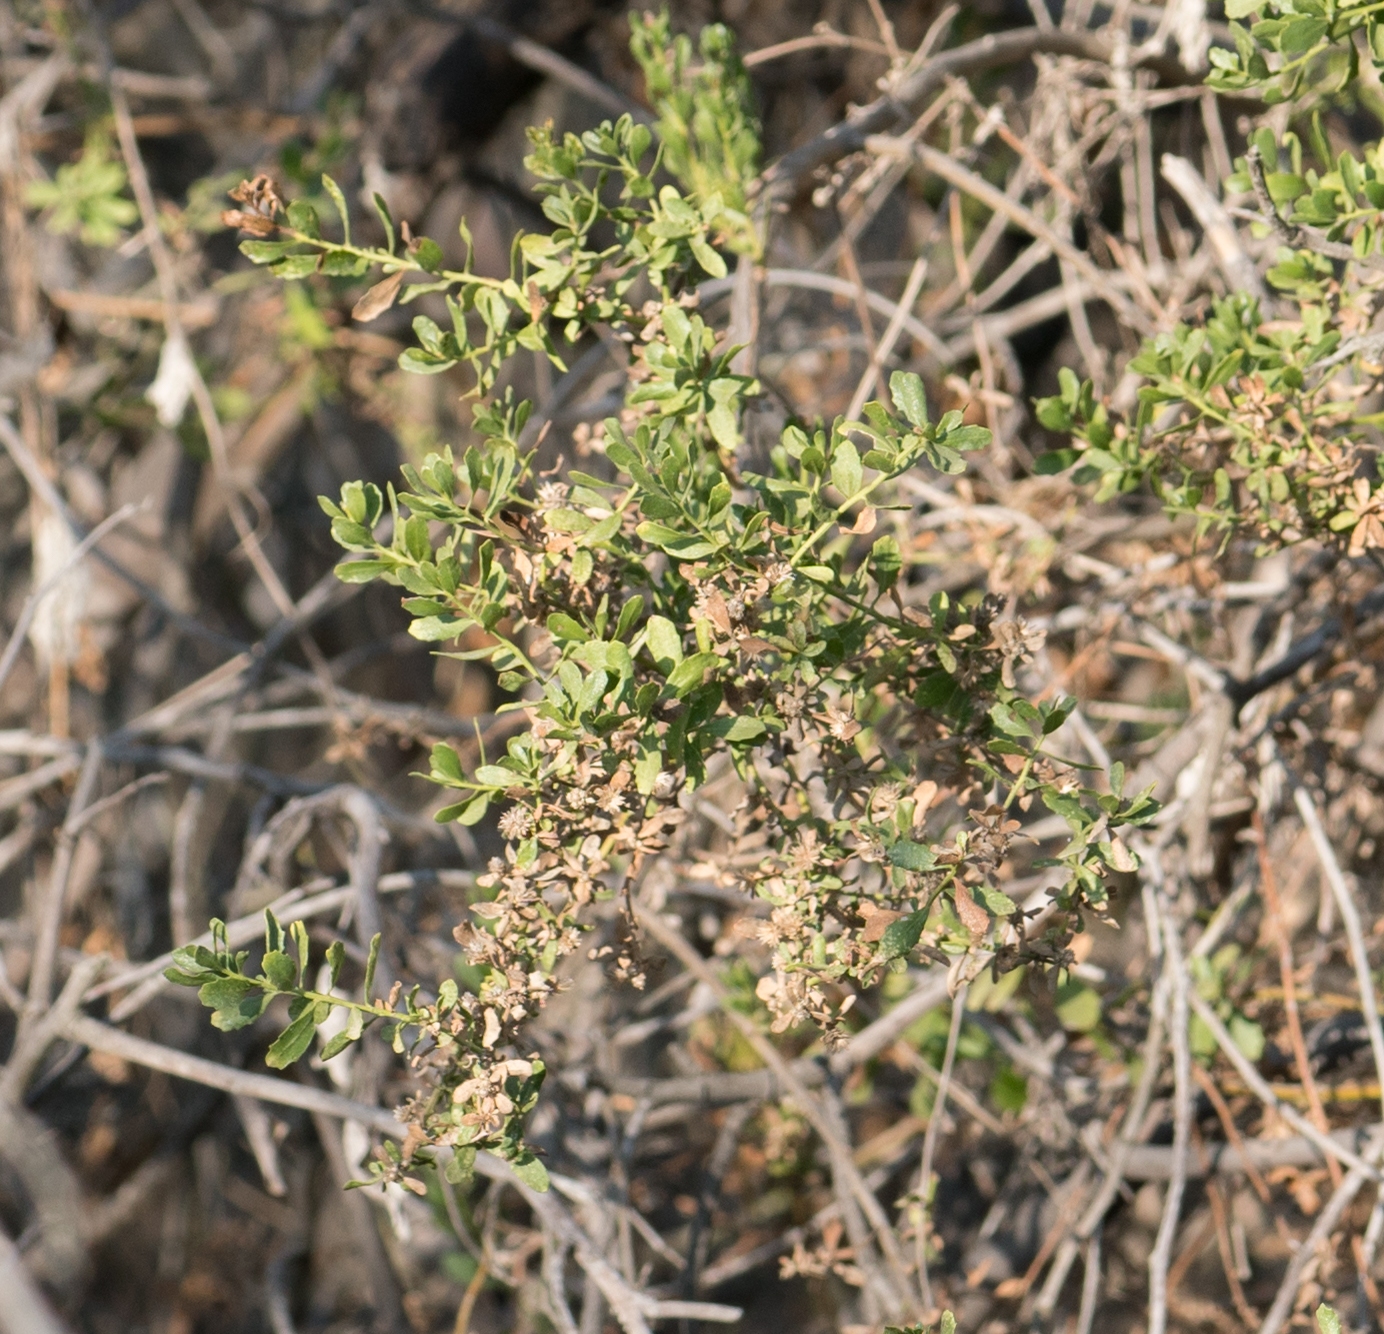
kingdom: Plantae
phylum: Tracheophyta
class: Magnoliopsida
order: Asterales
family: Asteraceae
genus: Baccharis
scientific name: Baccharis pilularis
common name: Coyotebrush
